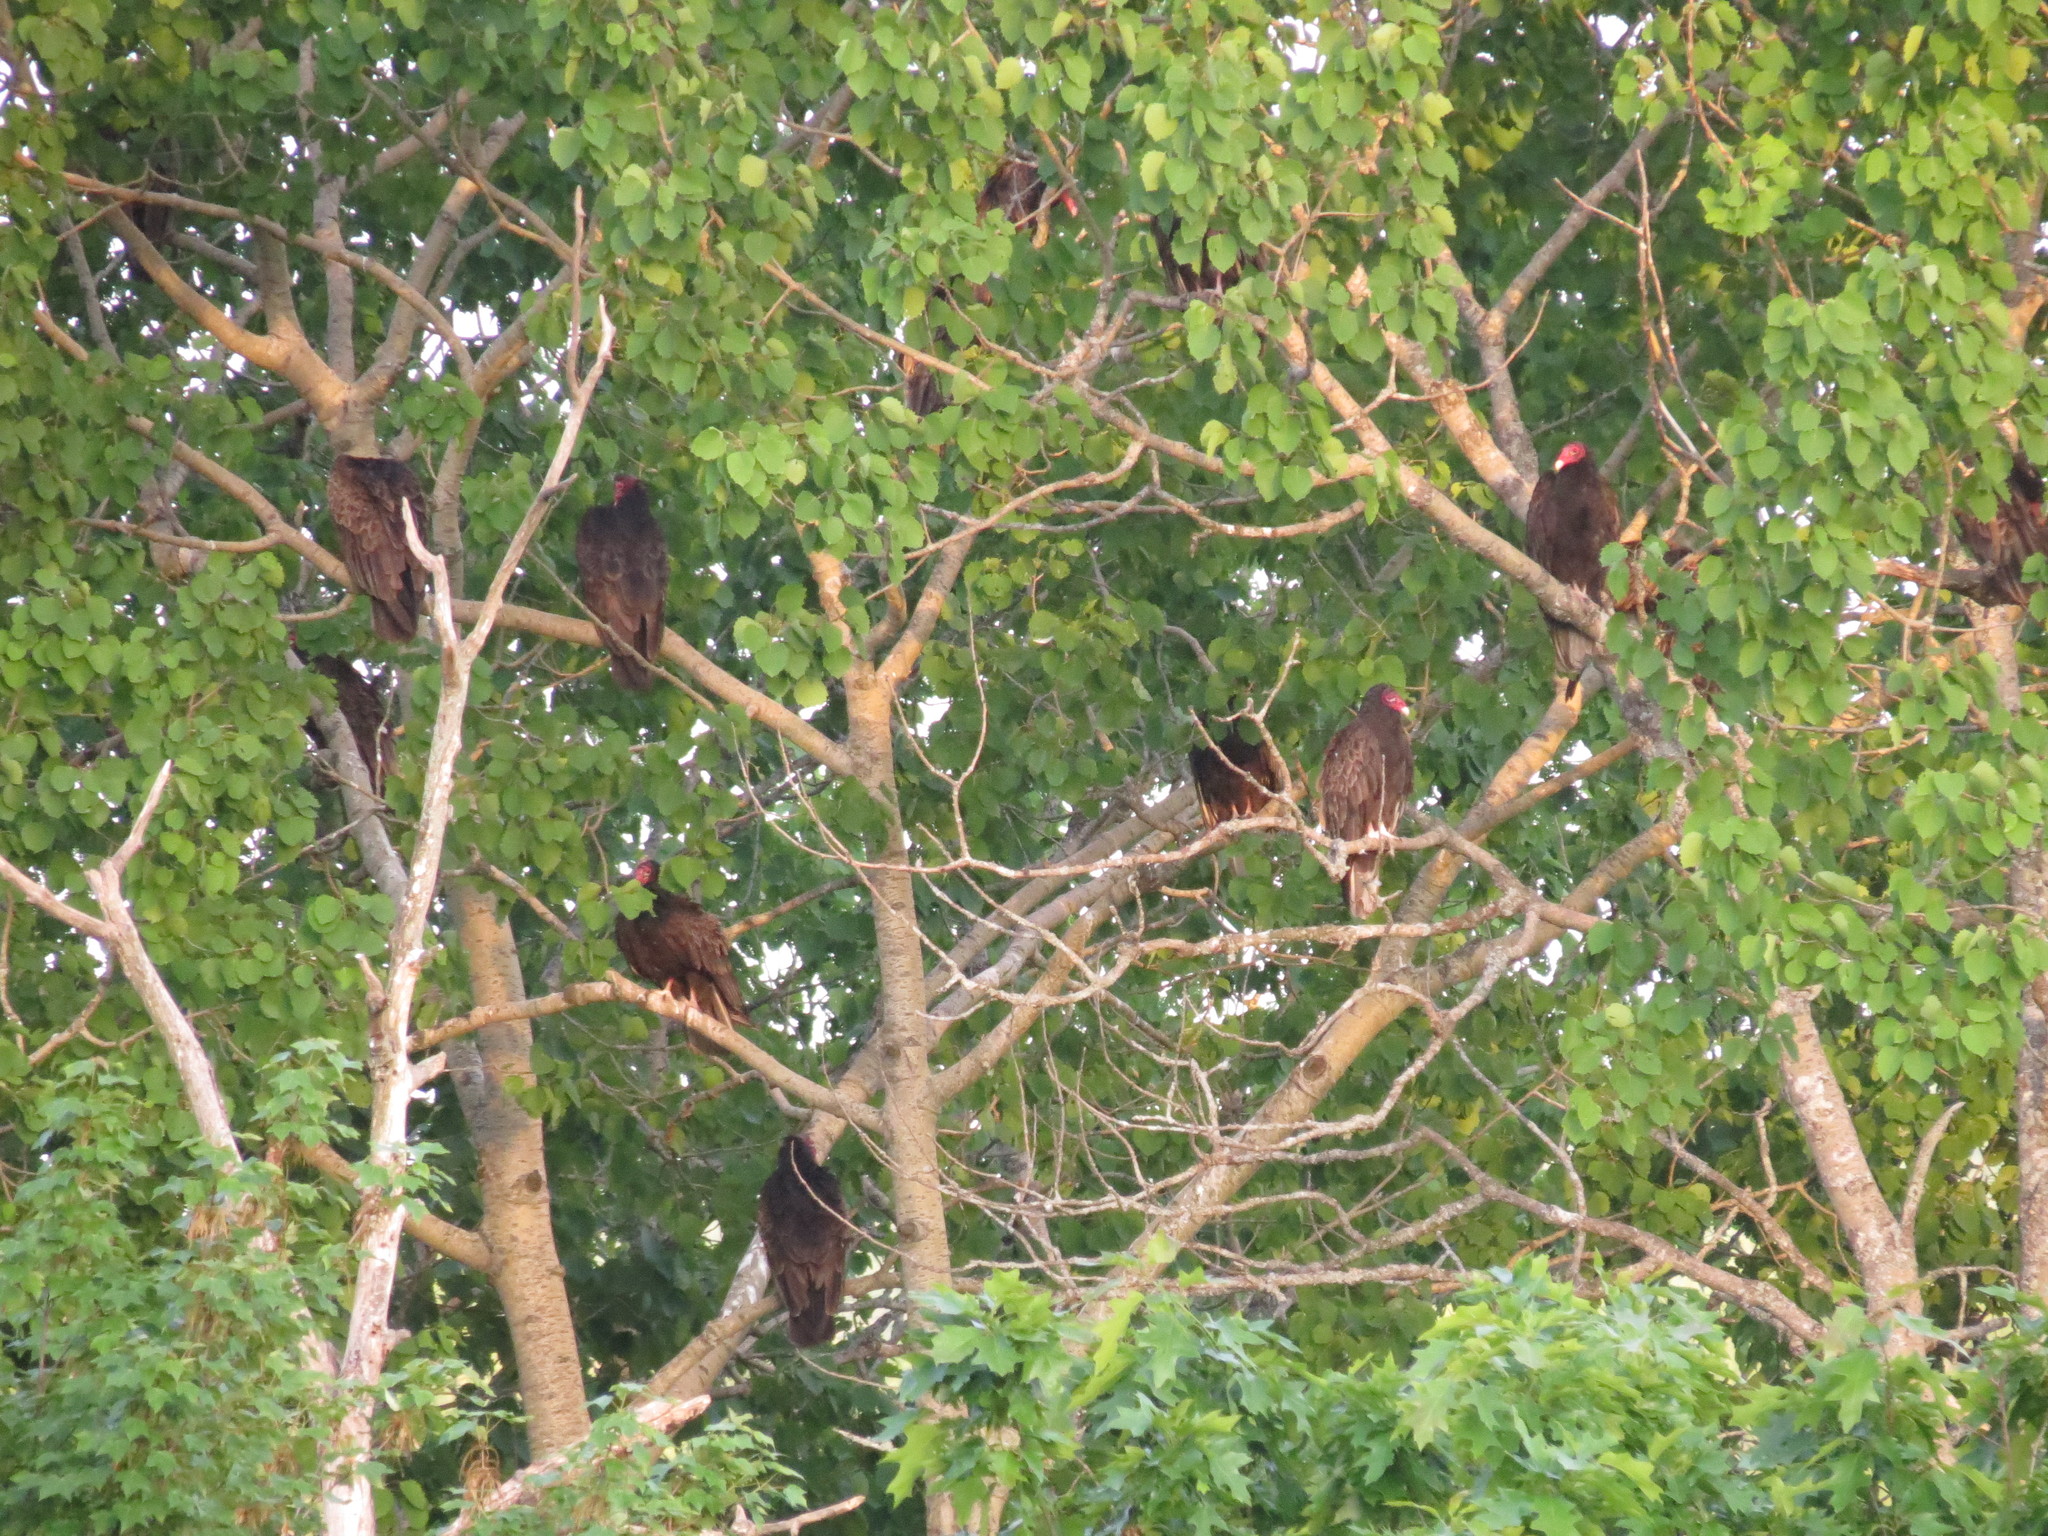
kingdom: Animalia
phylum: Chordata
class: Aves
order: Accipitriformes
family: Cathartidae
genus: Cathartes
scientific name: Cathartes aura
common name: Turkey vulture
